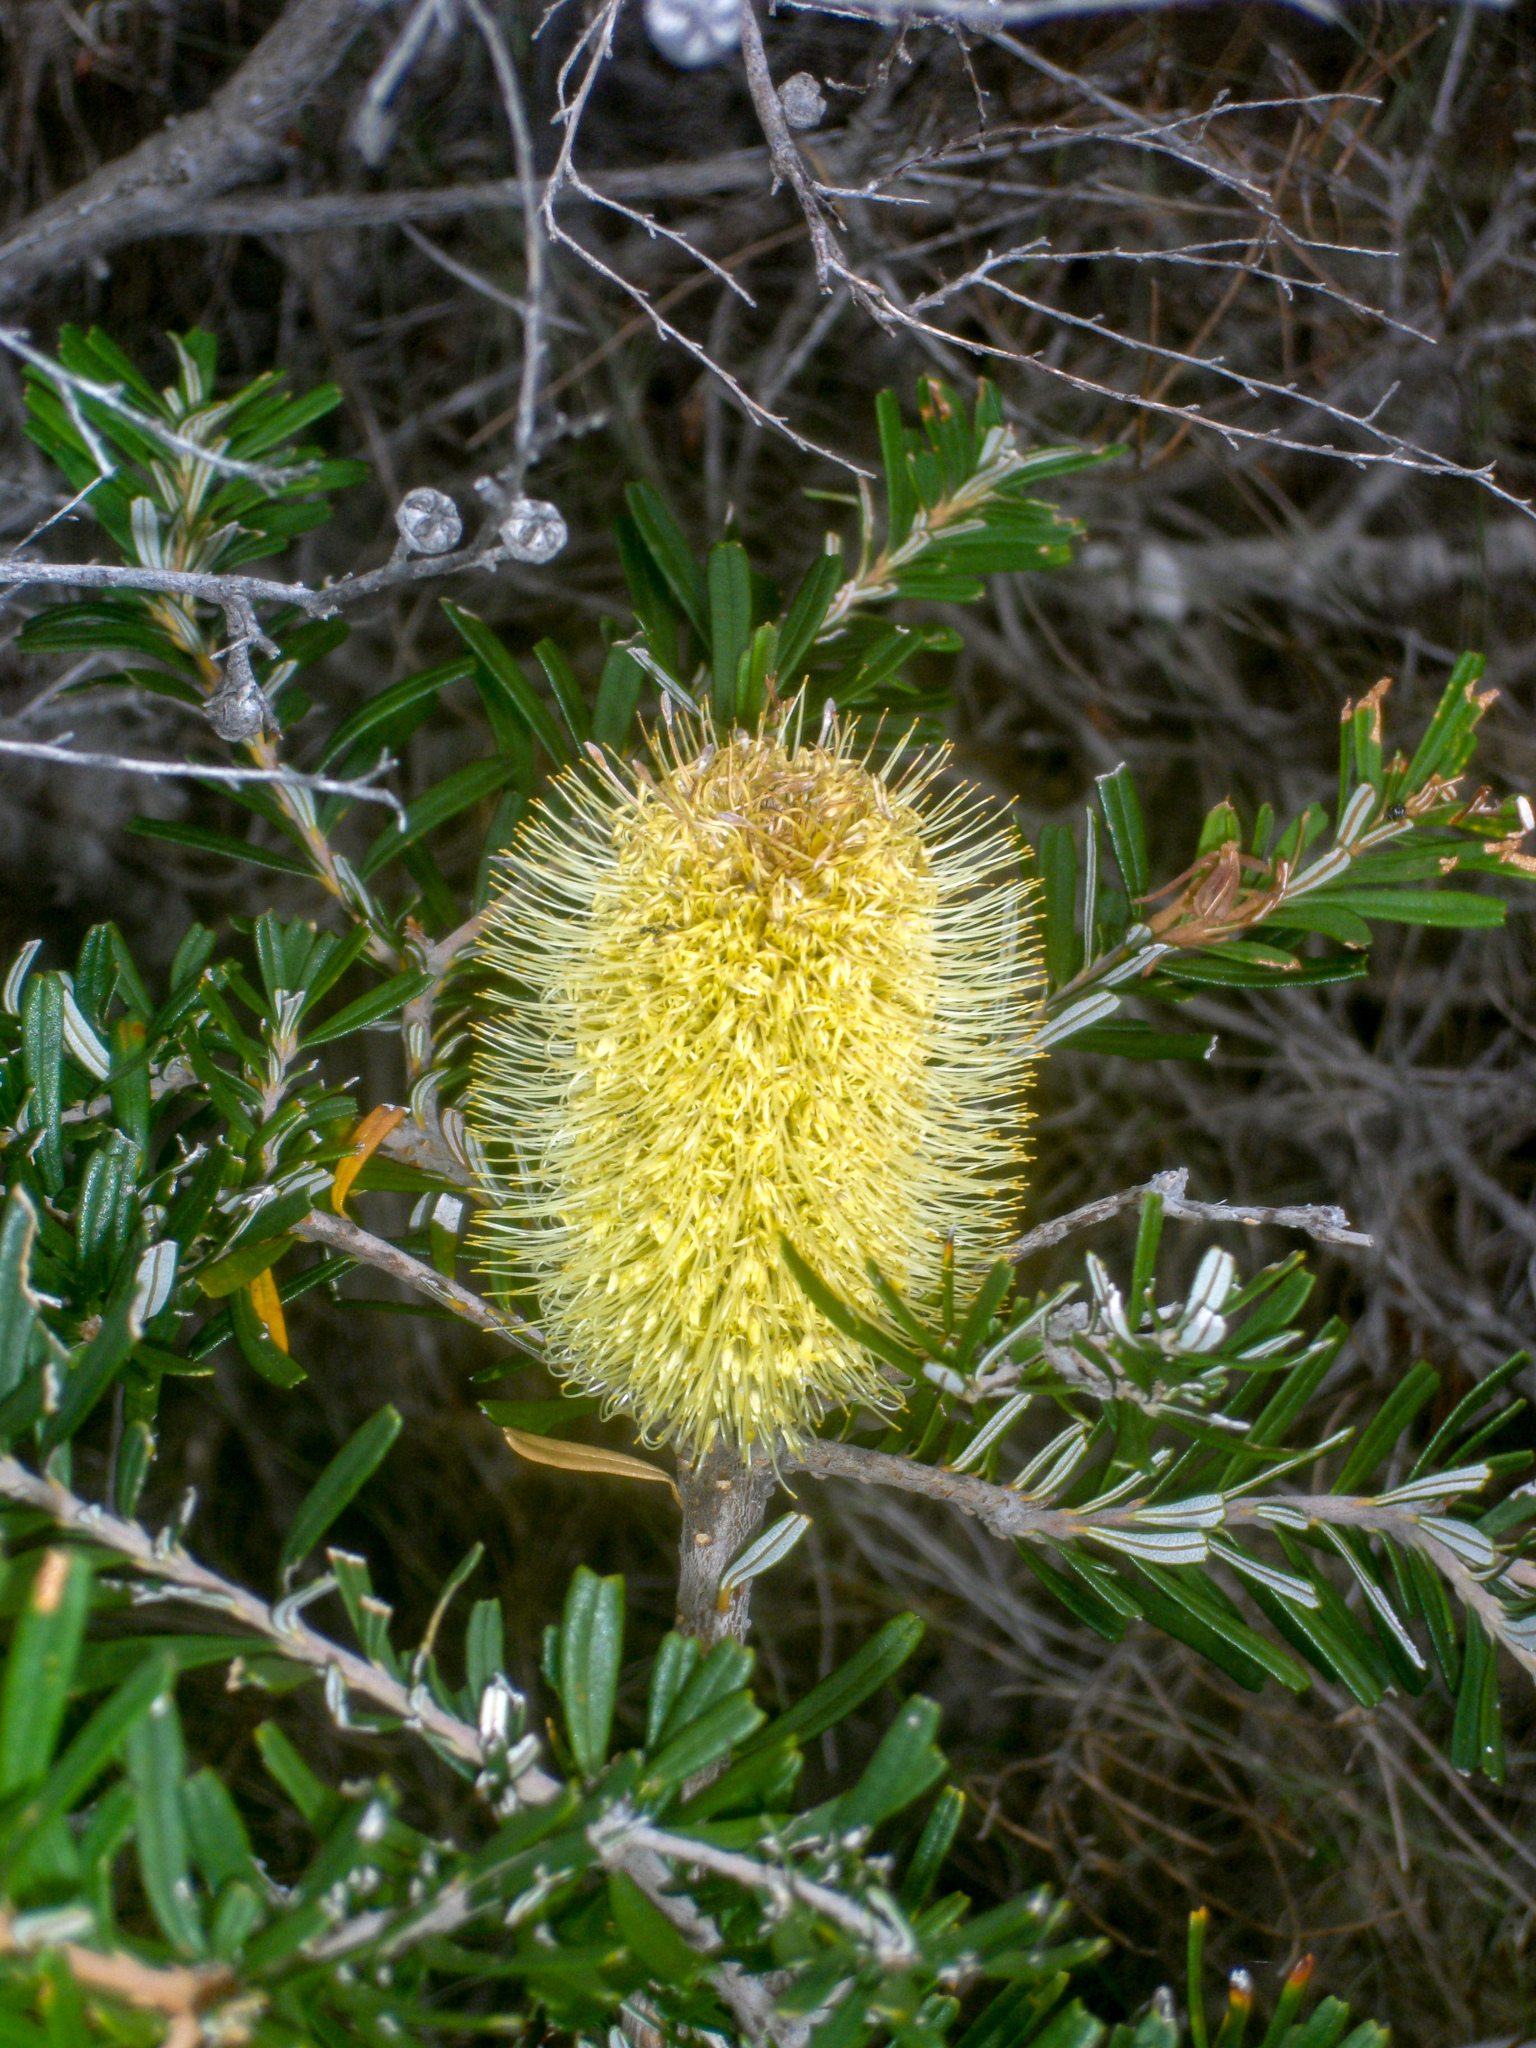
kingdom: Plantae
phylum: Tracheophyta
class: Magnoliopsida
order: Proteales
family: Proteaceae
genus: Banksia
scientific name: Banksia marginata
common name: Silver banksia
